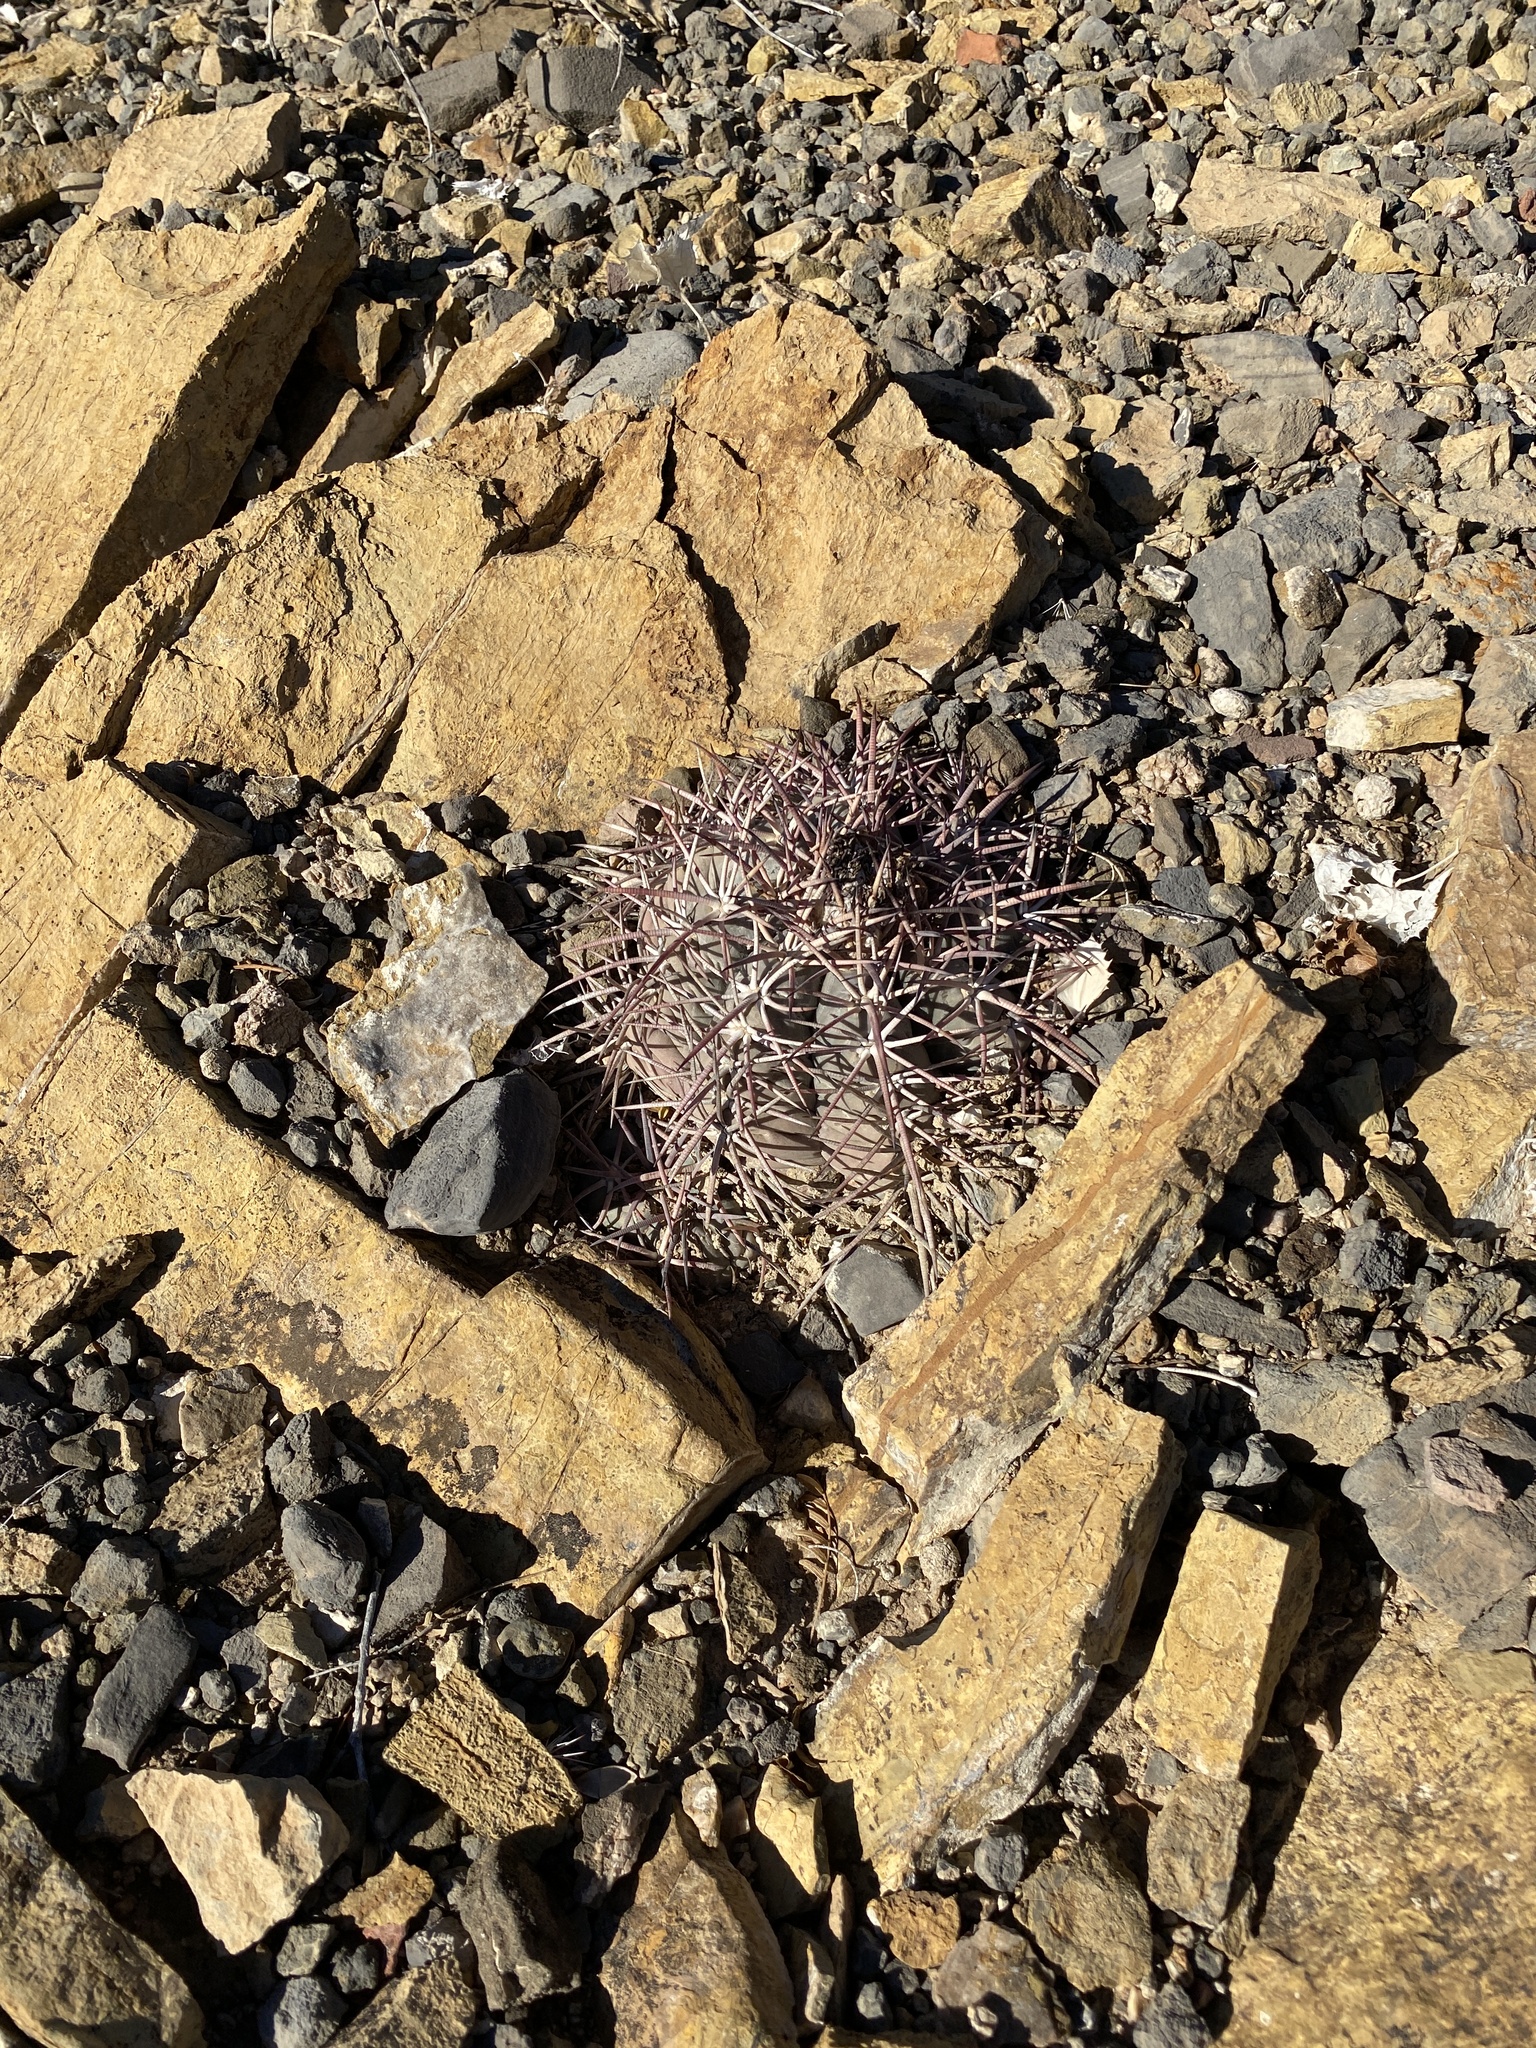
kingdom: Plantae
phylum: Tracheophyta
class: Magnoliopsida
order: Caryophyllales
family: Cactaceae
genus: Echinocactus
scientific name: Echinocactus horizonthalonius
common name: Devilshead
